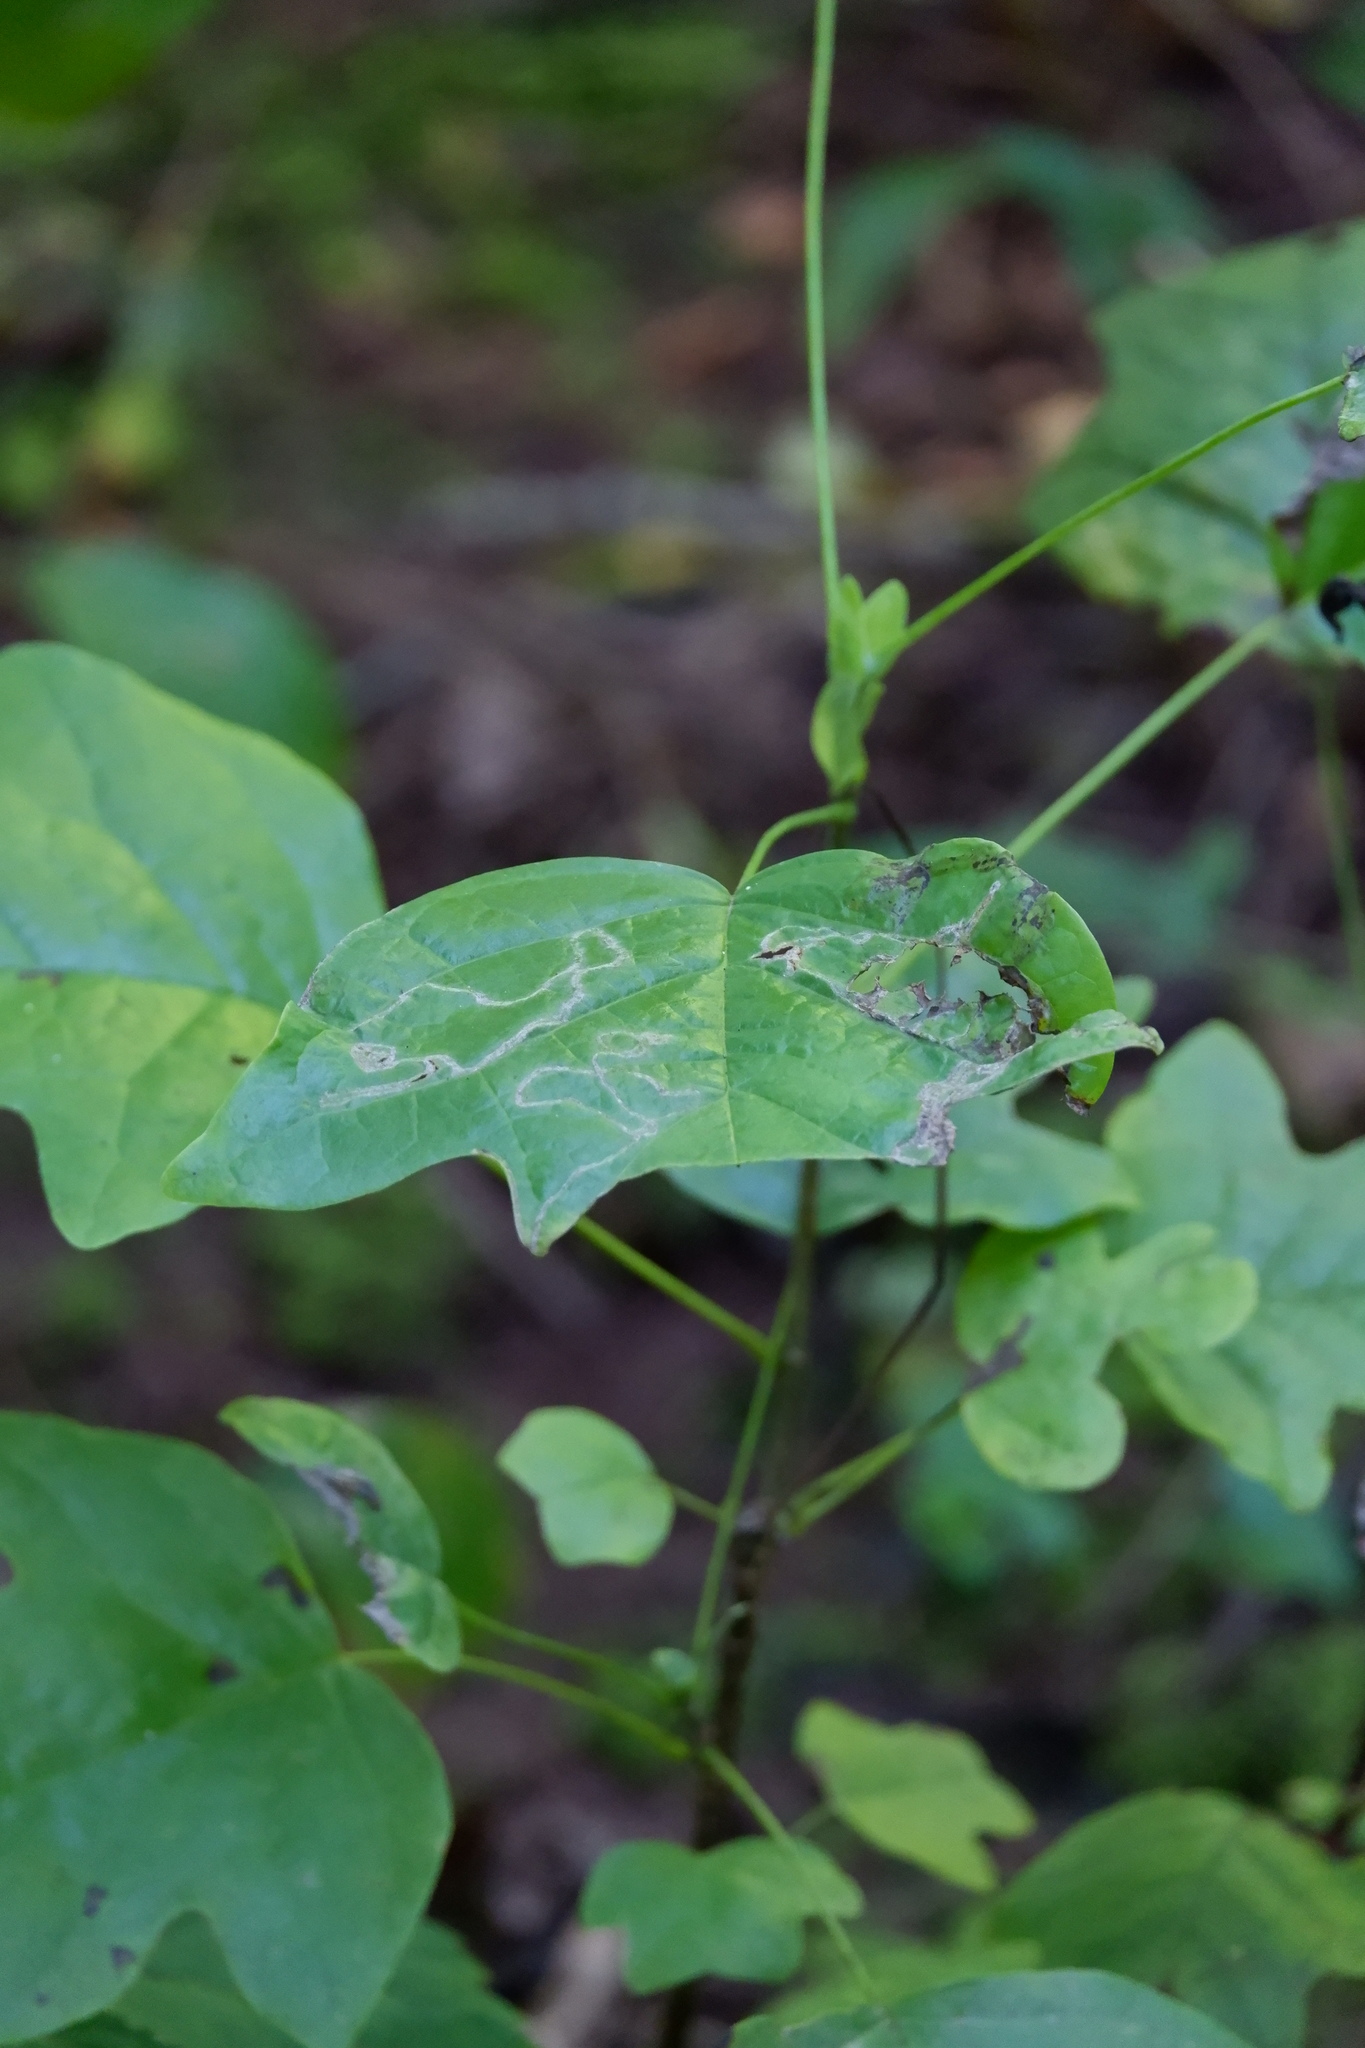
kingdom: Animalia
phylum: Arthropoda
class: Insecta
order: Lepidoptera
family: Gracillariidae
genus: Phyllocnistis
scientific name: Phyllocnistis liriodendronella
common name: Tulip tree leaf miner
